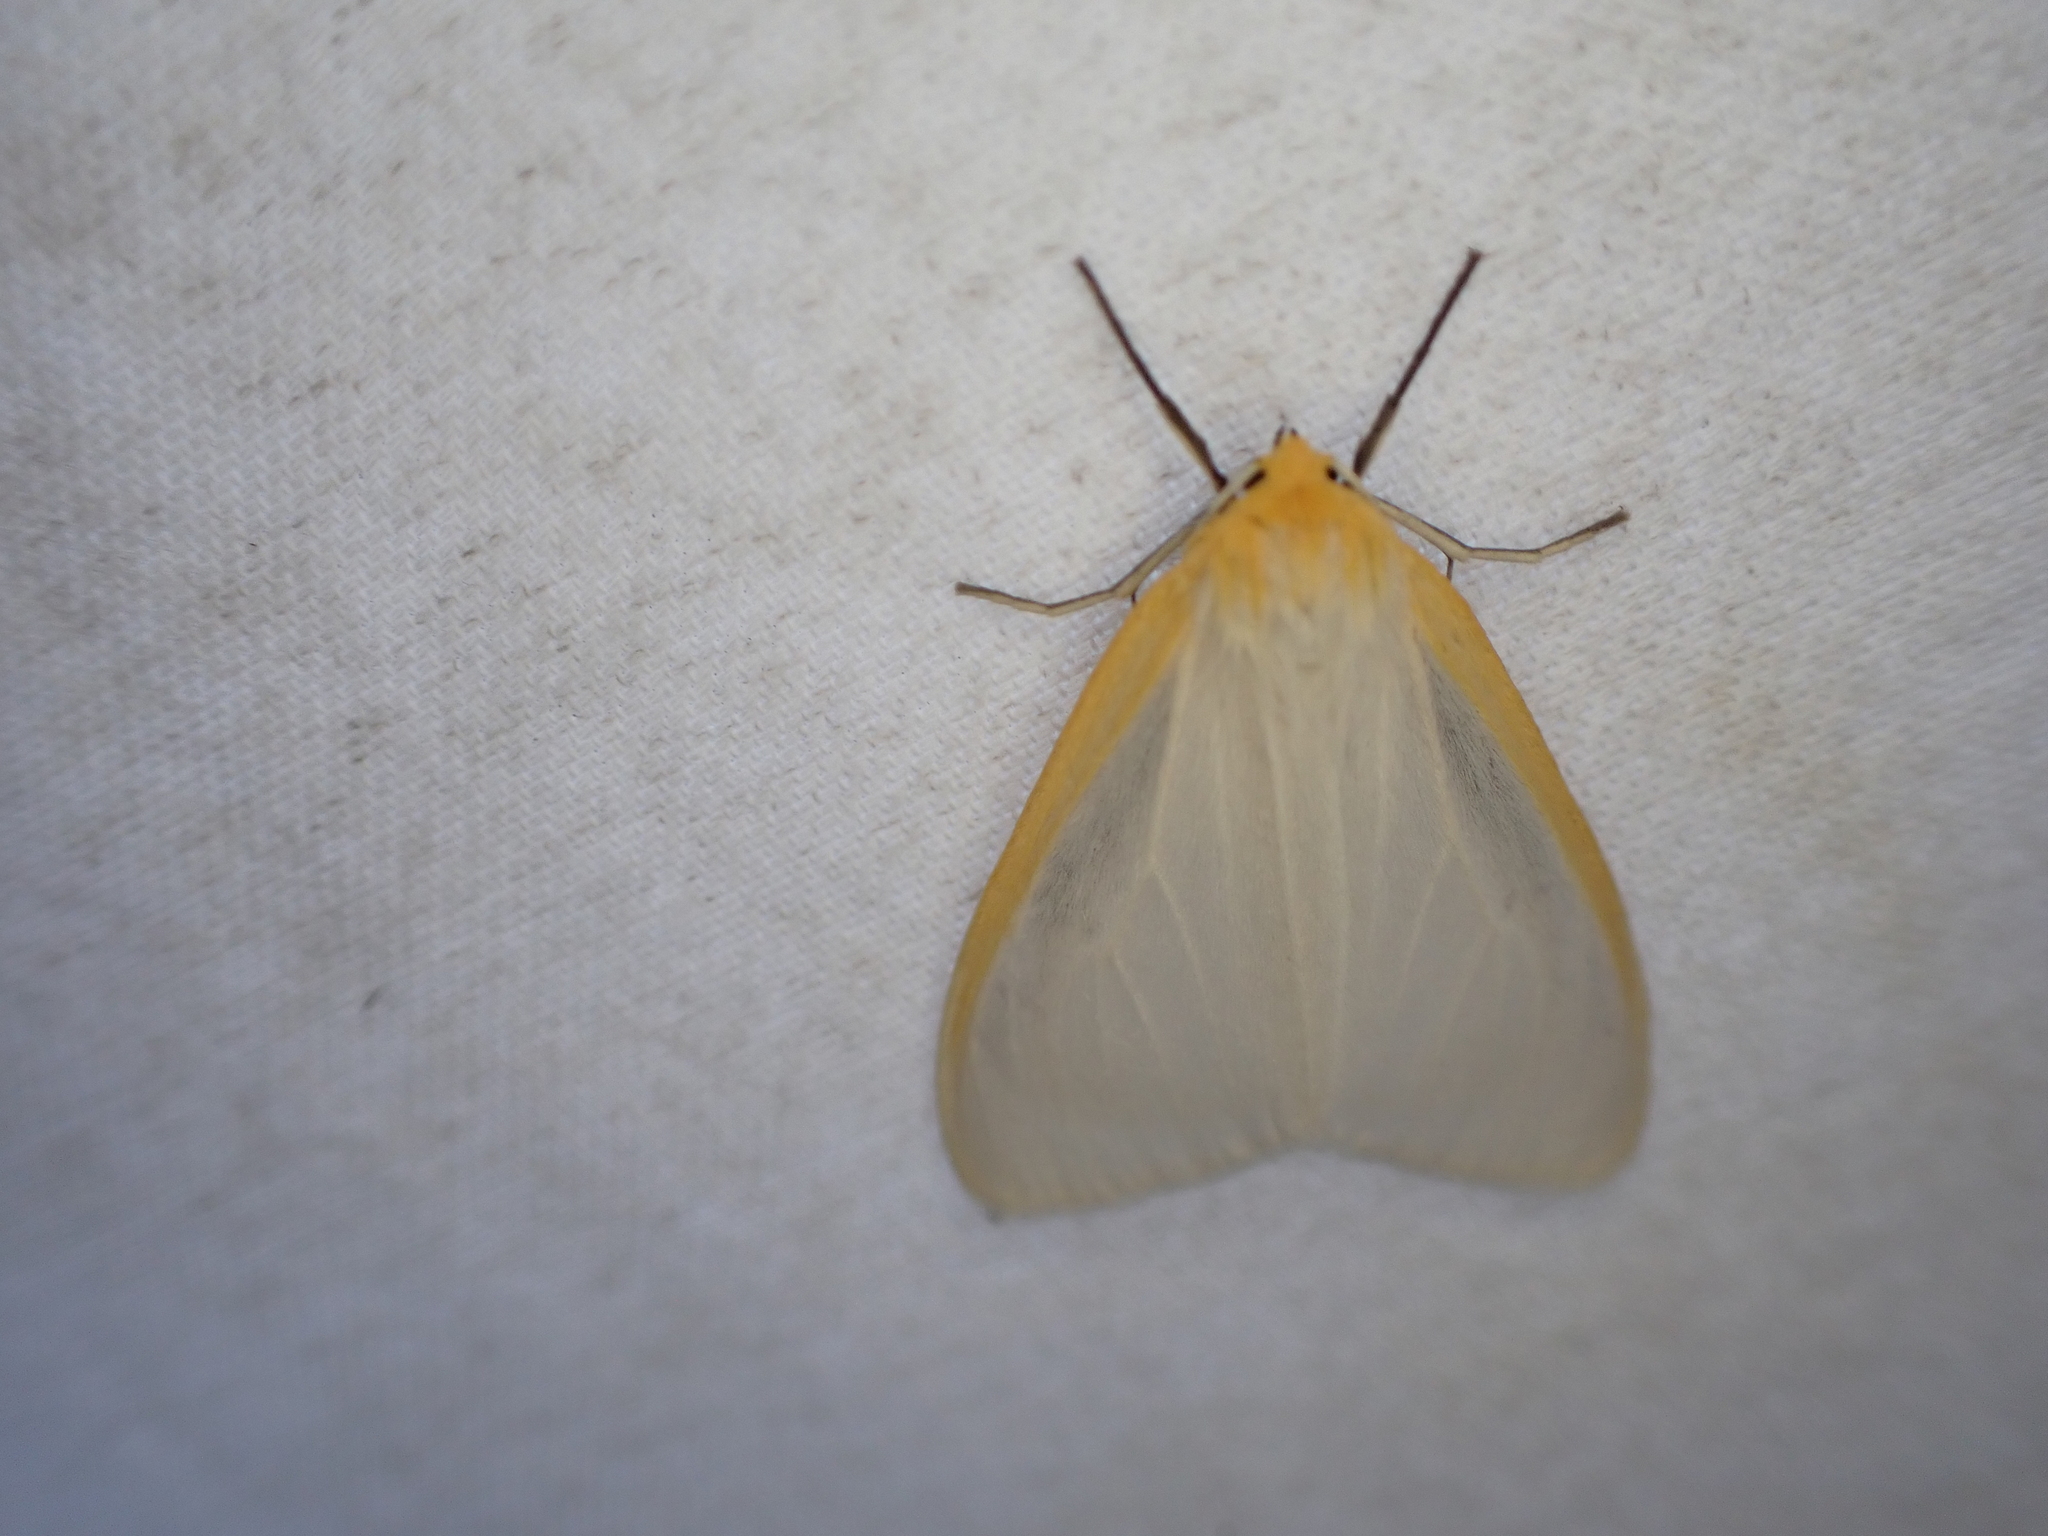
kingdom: Animalia
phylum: Arthropoda
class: Insecta
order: Lepidoptera
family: Erebidae
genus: Cycnia
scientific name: Cycnia tenera
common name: Delicate cycnia moth
